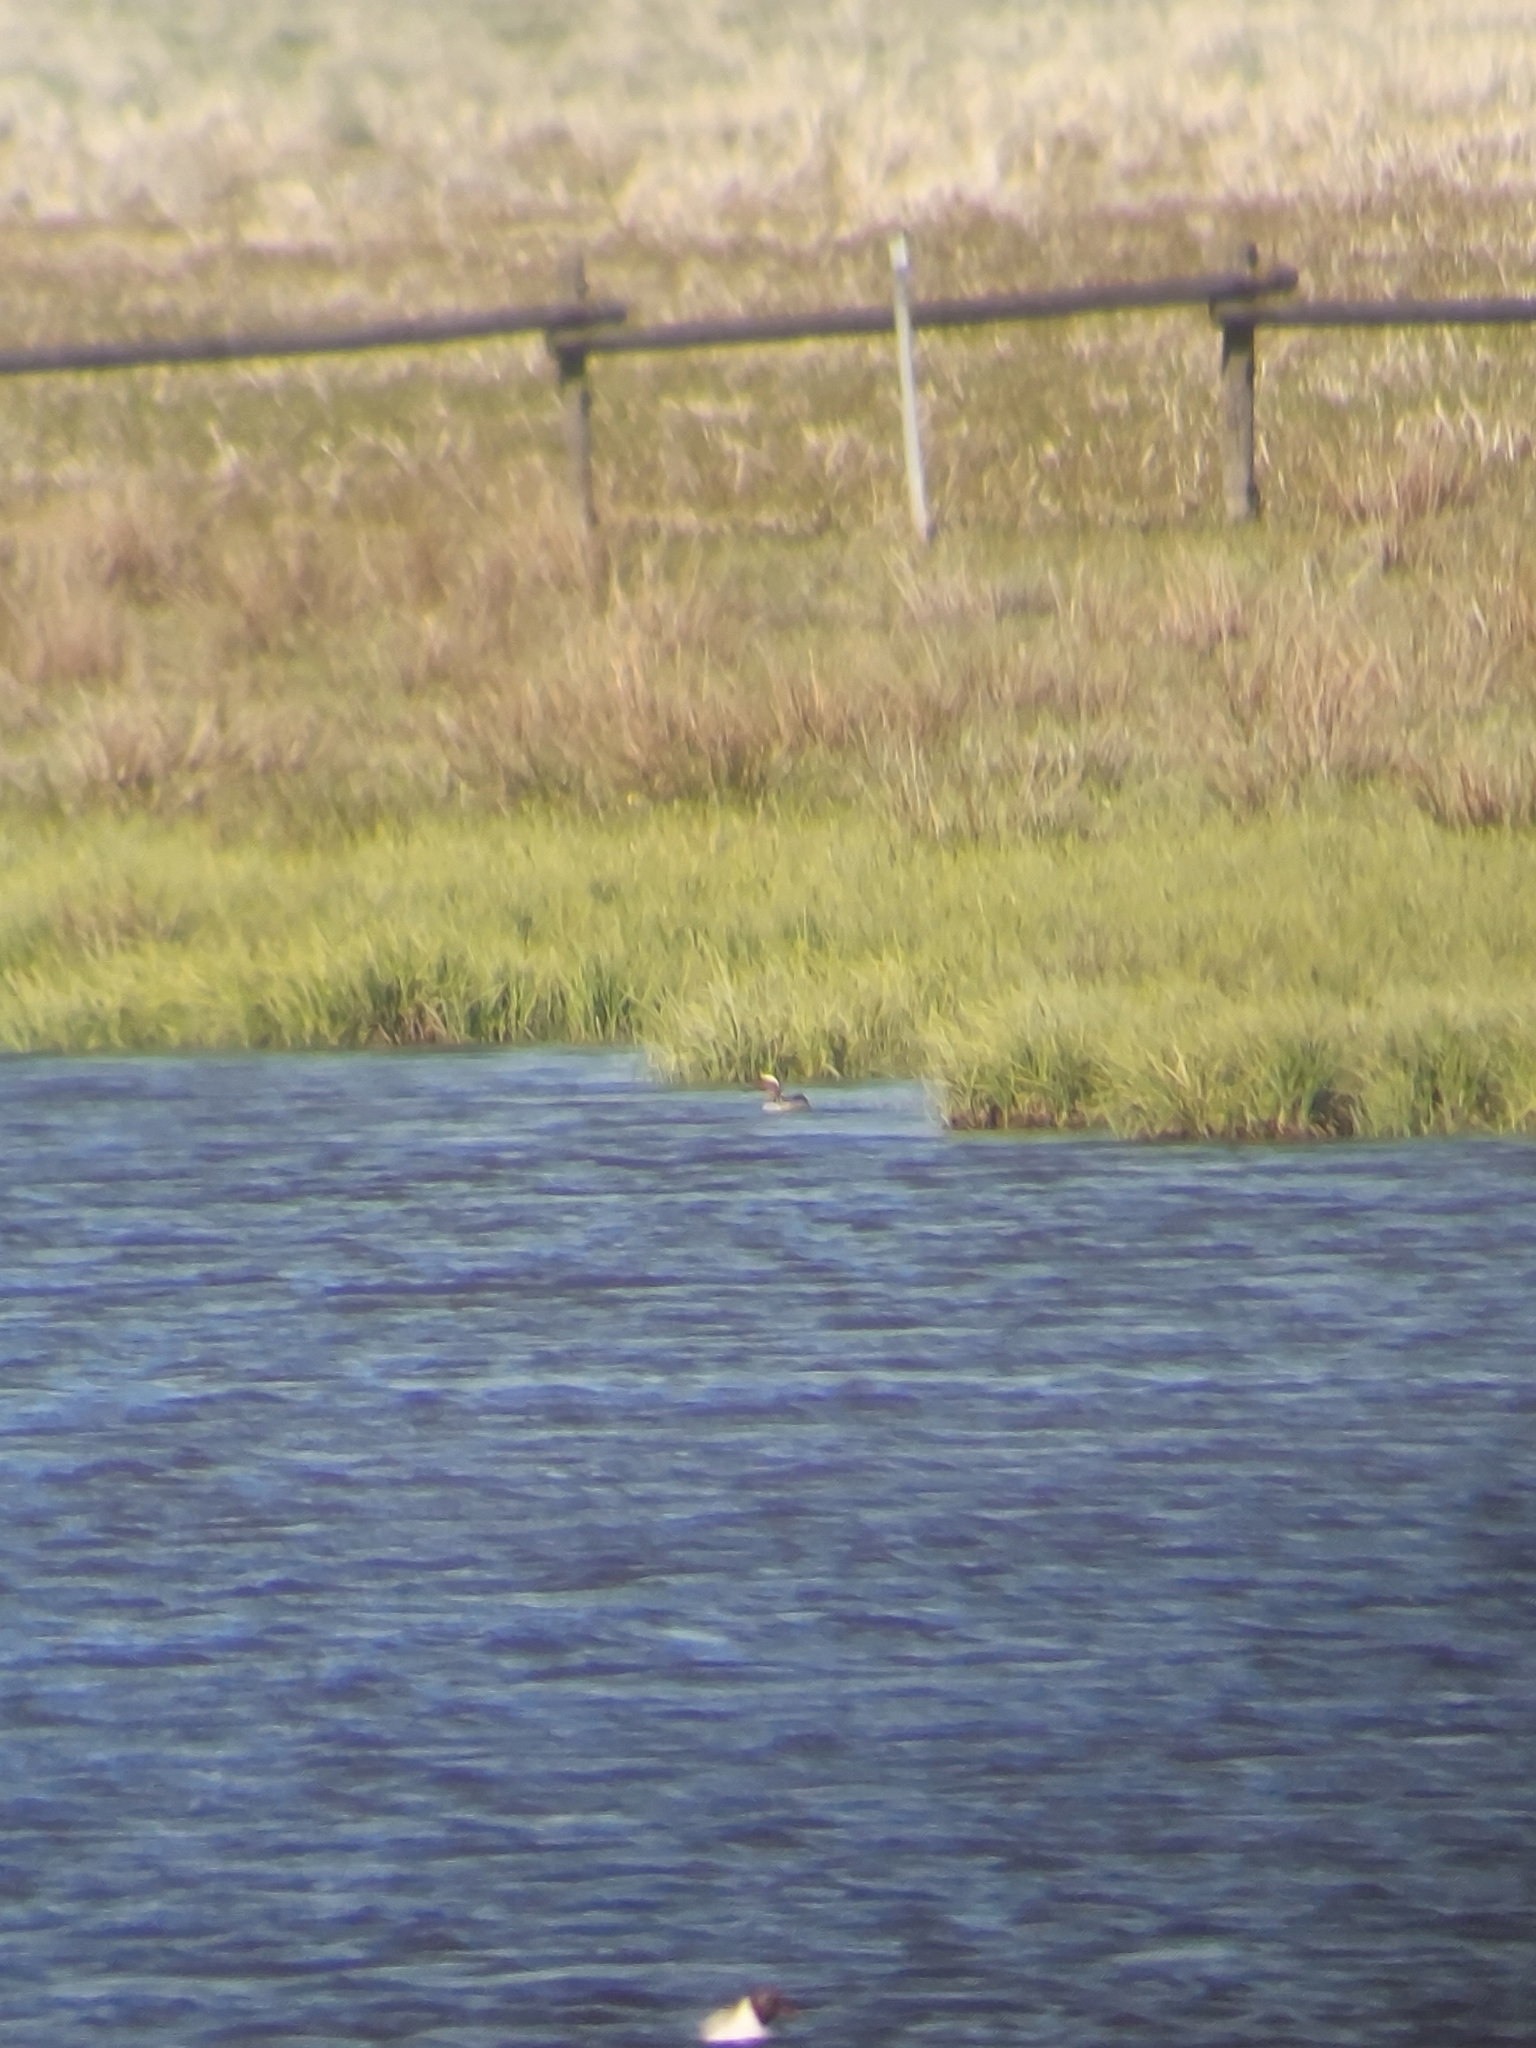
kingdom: Animalia
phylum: Chordata
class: Aves
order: Anseriformes
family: Anatidae
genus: Spatula
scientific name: Spatula querquedula
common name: Garganey
